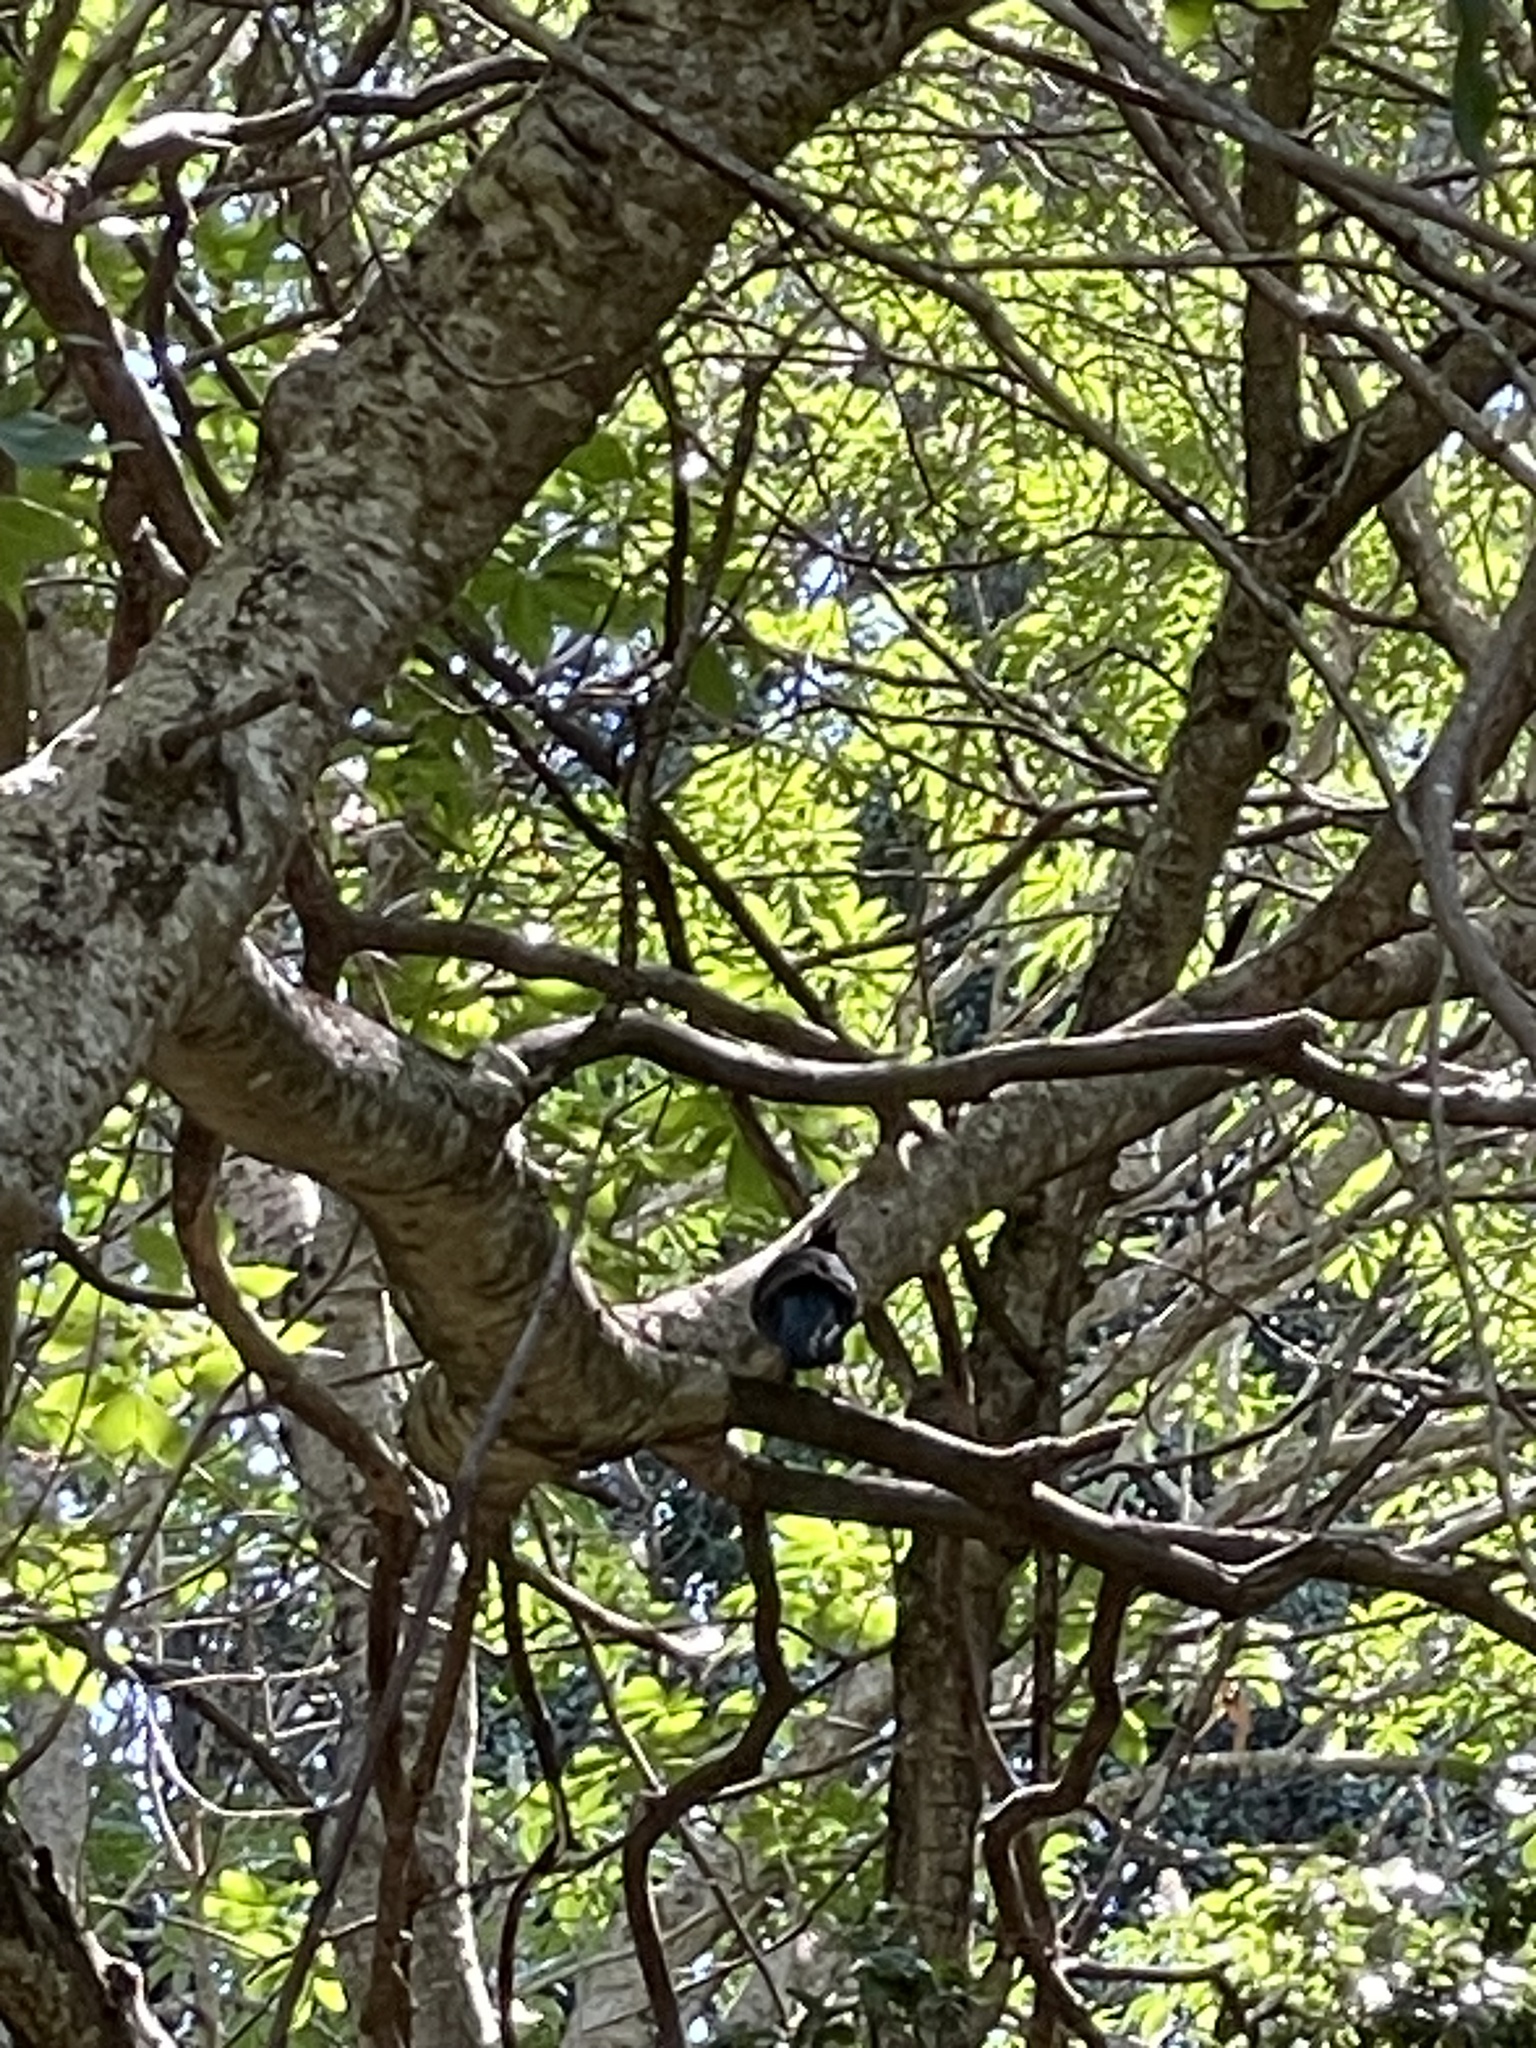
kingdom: Animalia
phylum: Chordata
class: Aves
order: Passeriformes
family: Corvidae
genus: Cyanocitta
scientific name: Cyanocitta stelleri
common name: Steller's jay
